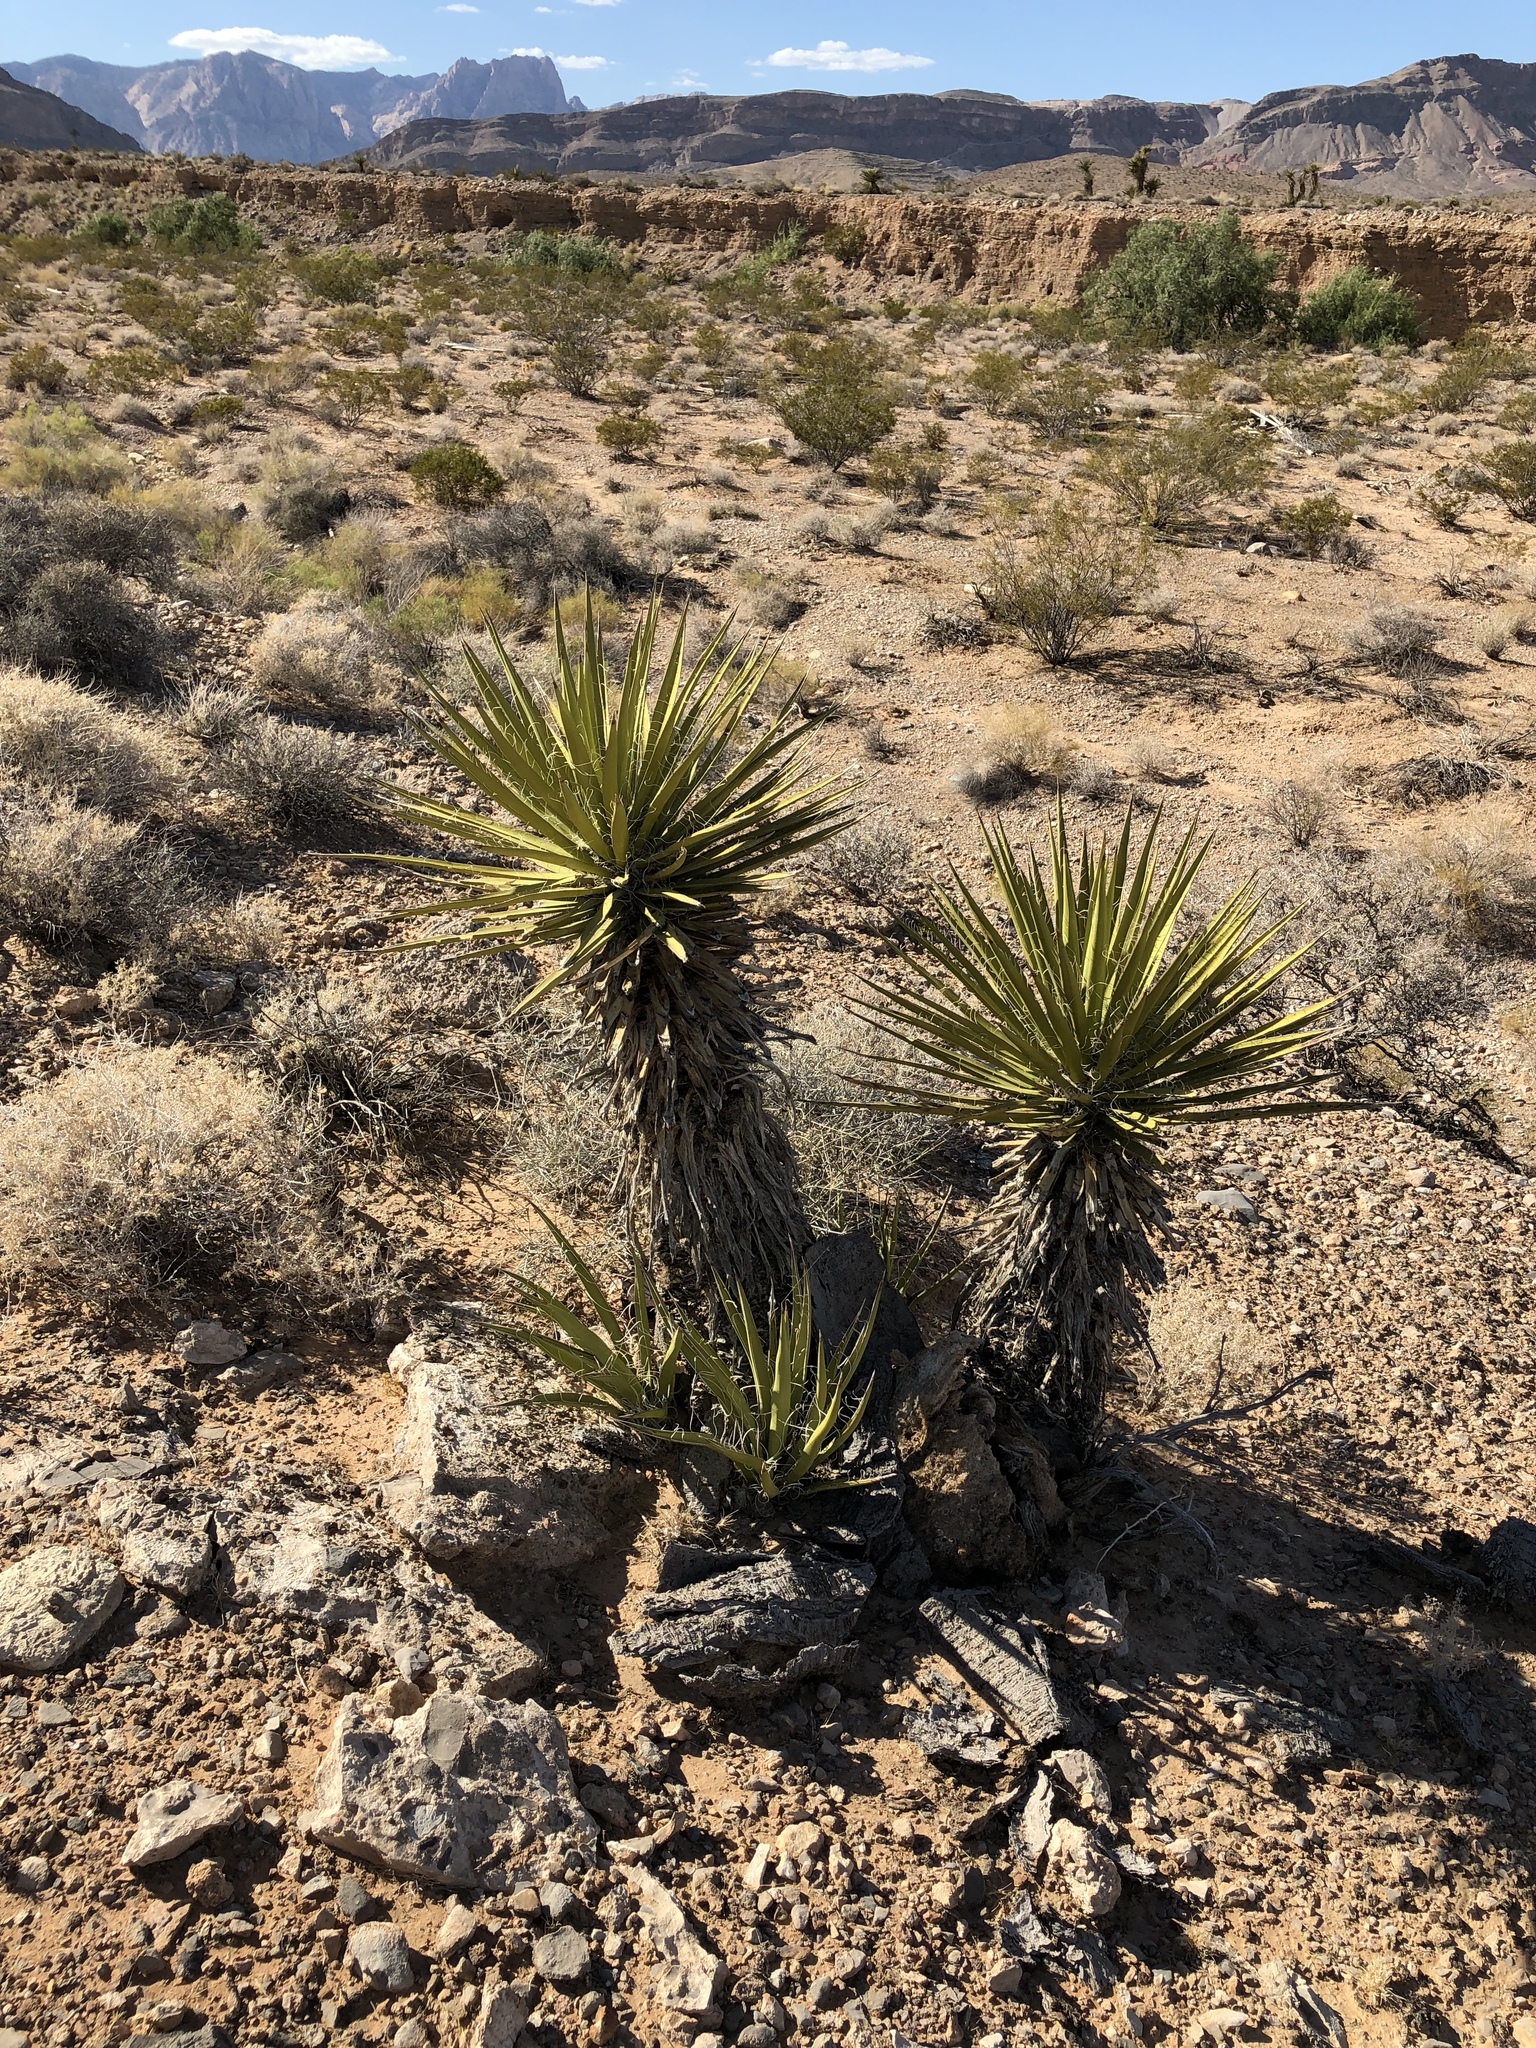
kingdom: Plantae
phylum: Tracheophyta
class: Liliopsida
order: Asparagales
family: Asparagaceae
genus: Yucca
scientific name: Yucca schidigera
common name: Mojave yucca
